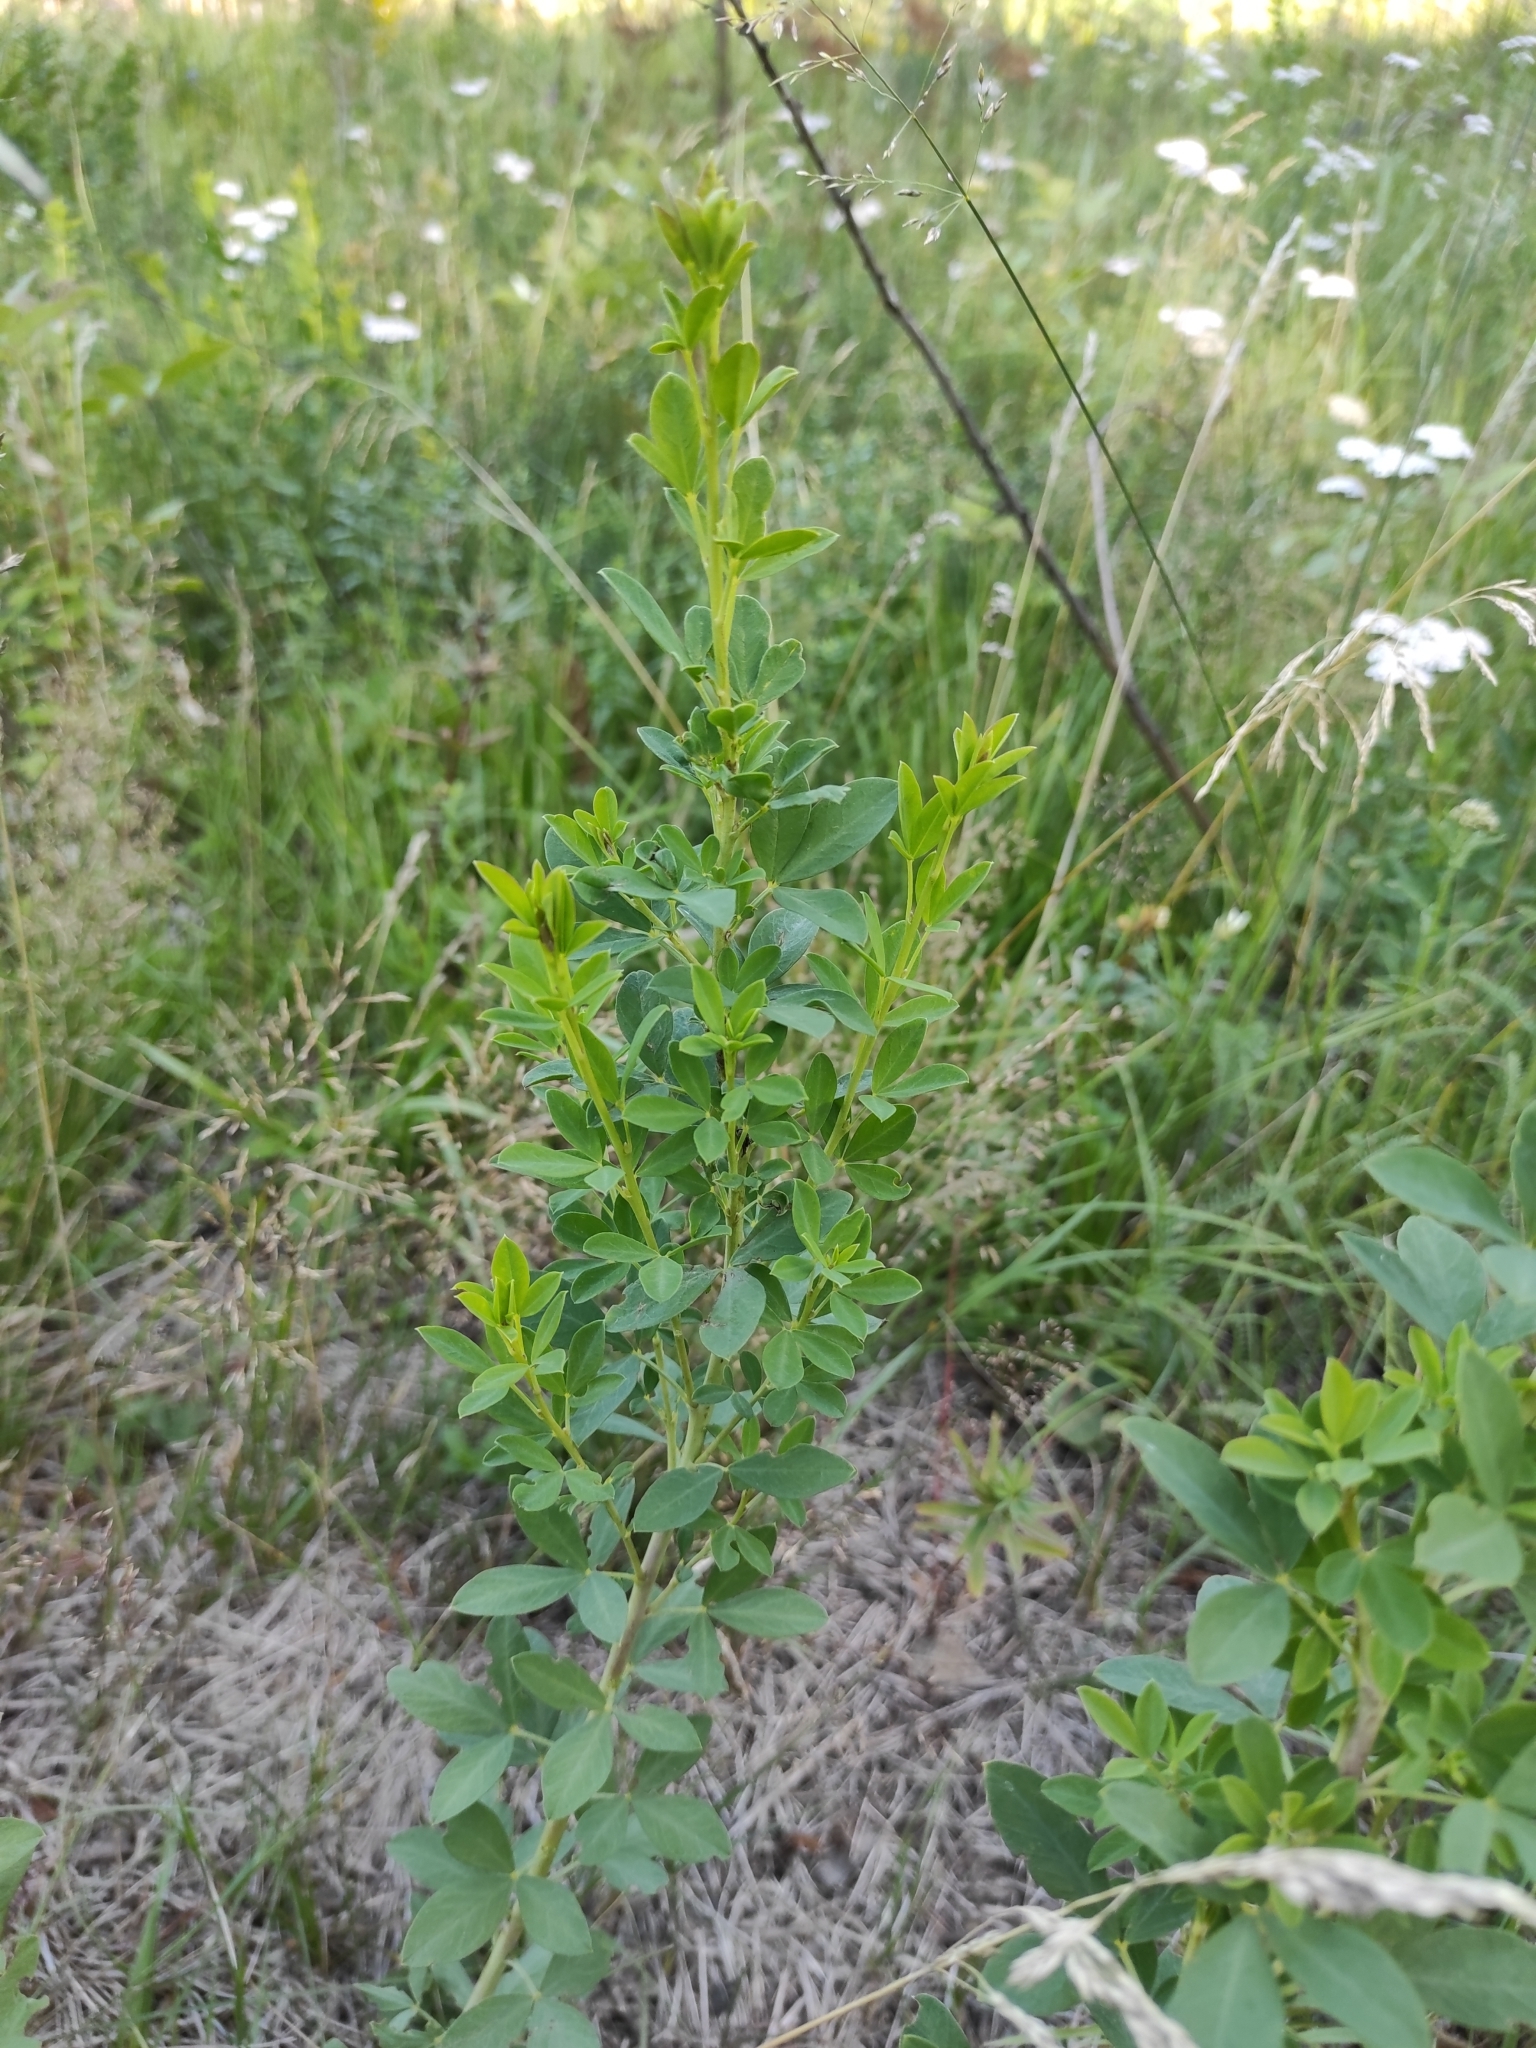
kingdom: Plantae
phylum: Tracheophyta
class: Magnoliopsida
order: Fabales
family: Fabaceae
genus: Chamaecytisus
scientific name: Chamaecytisus ruthenicus
